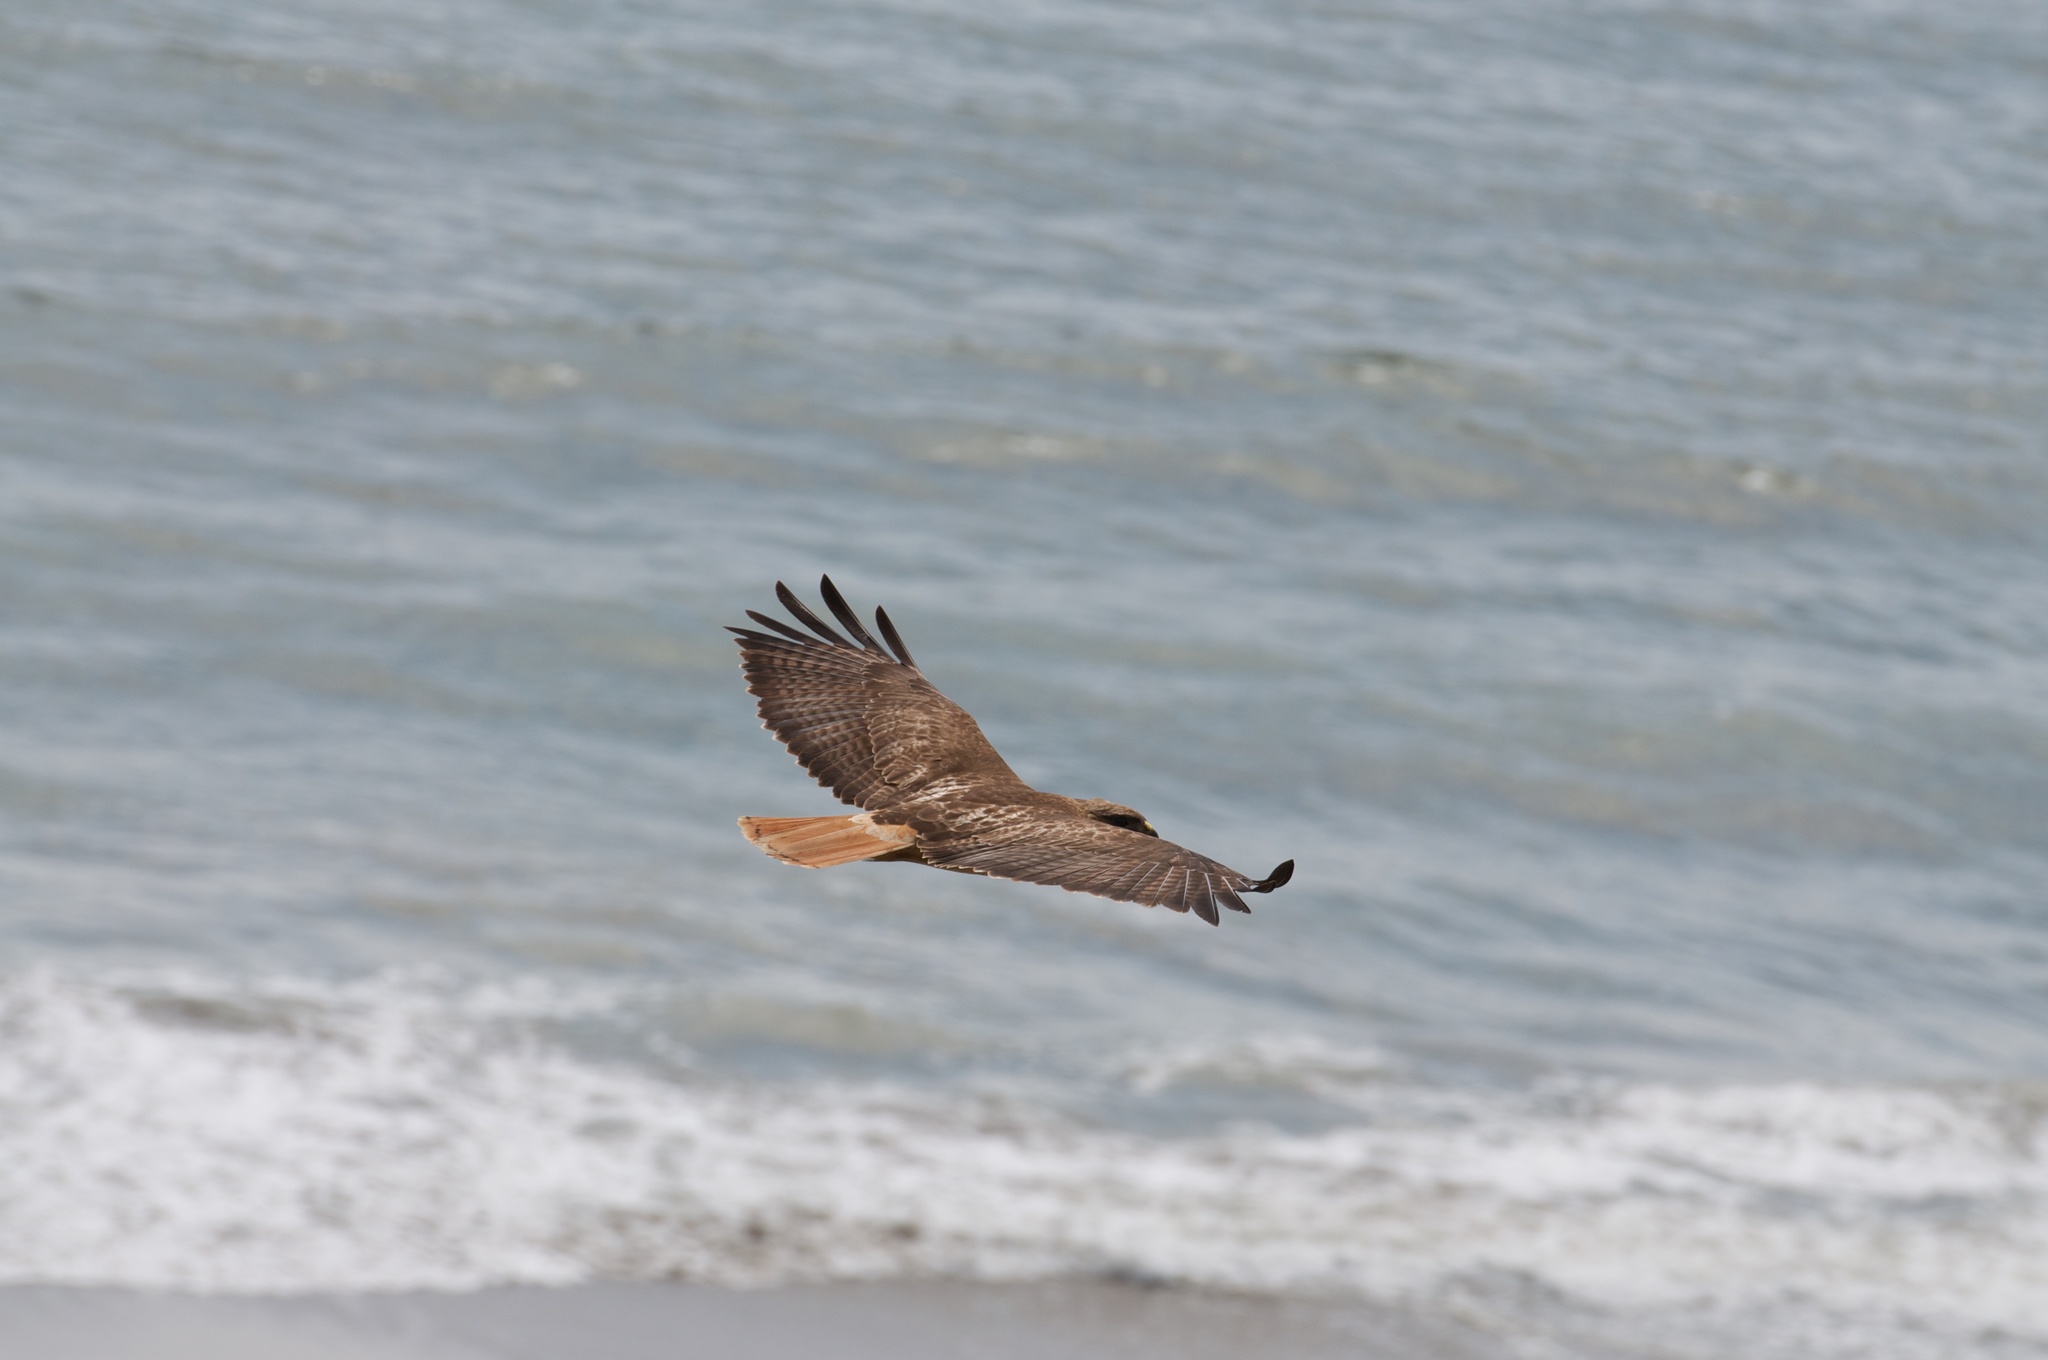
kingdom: Animalia
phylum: Chordata
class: Aves
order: Accipitriformes
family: Accipitridae
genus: Buteo
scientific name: Buteo jamaicensis
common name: Red-tailed hawk
